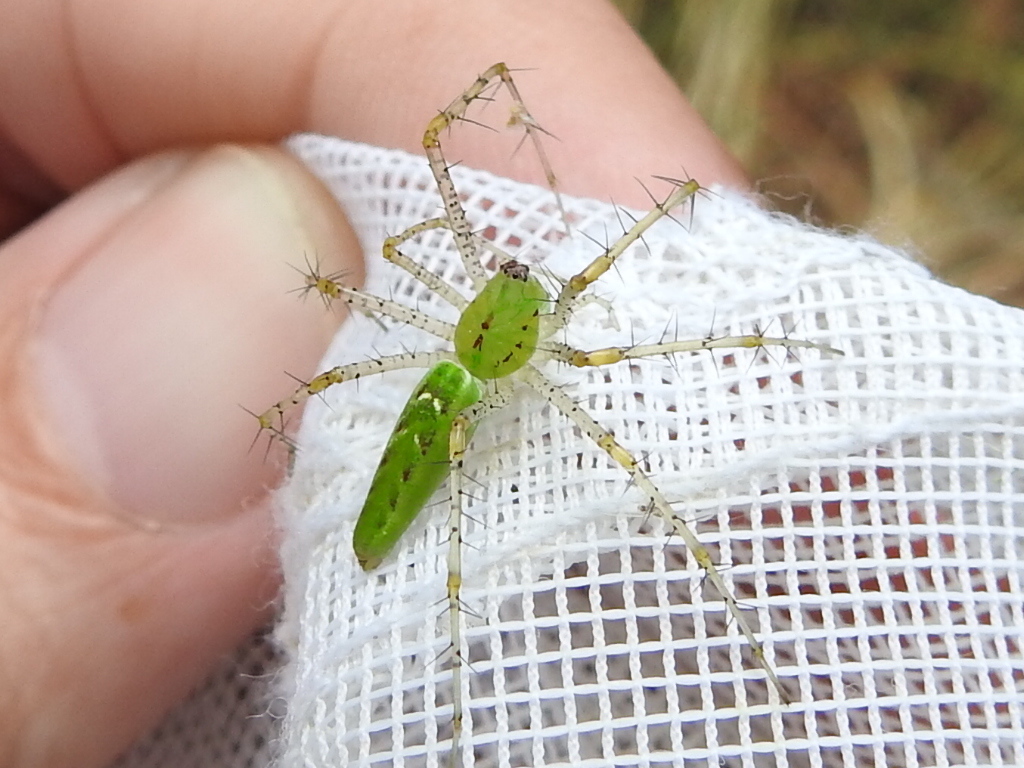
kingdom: Animalia
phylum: Arthropoda
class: Arachnida
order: Araneae
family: Oxyopidae
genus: Peucetia
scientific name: Peucetia viridans
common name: Lynx spiders
